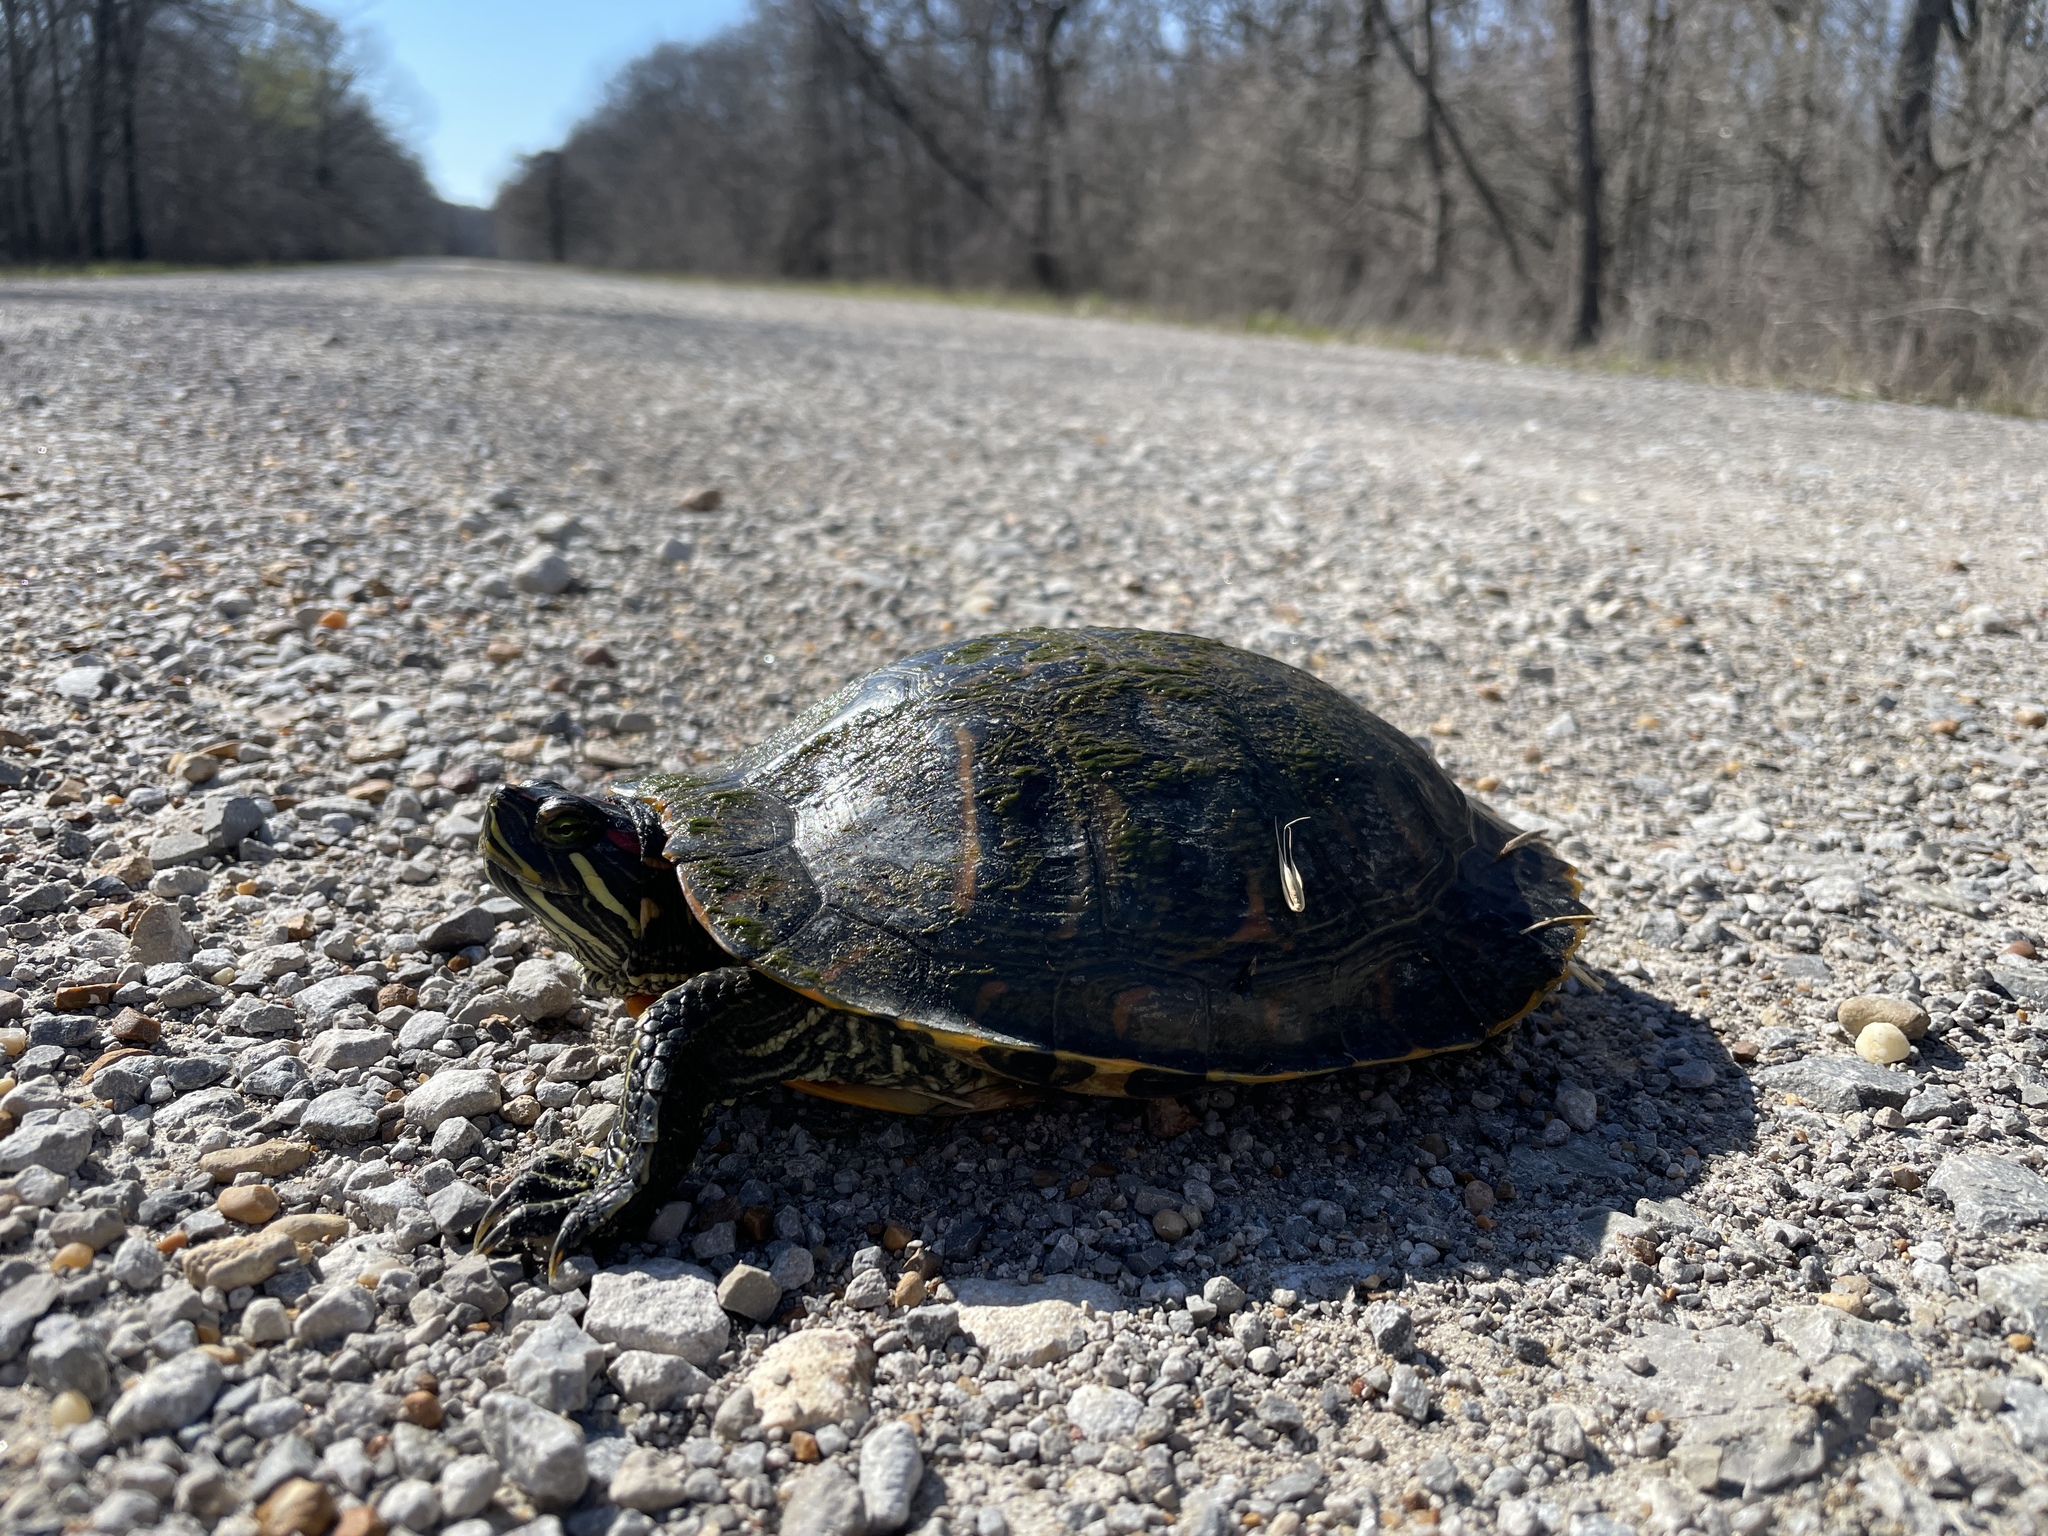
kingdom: Animalia
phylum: Chordata
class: Testudines
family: Emydidae
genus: Trachemys
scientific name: Trachemys scripta
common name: Slider
